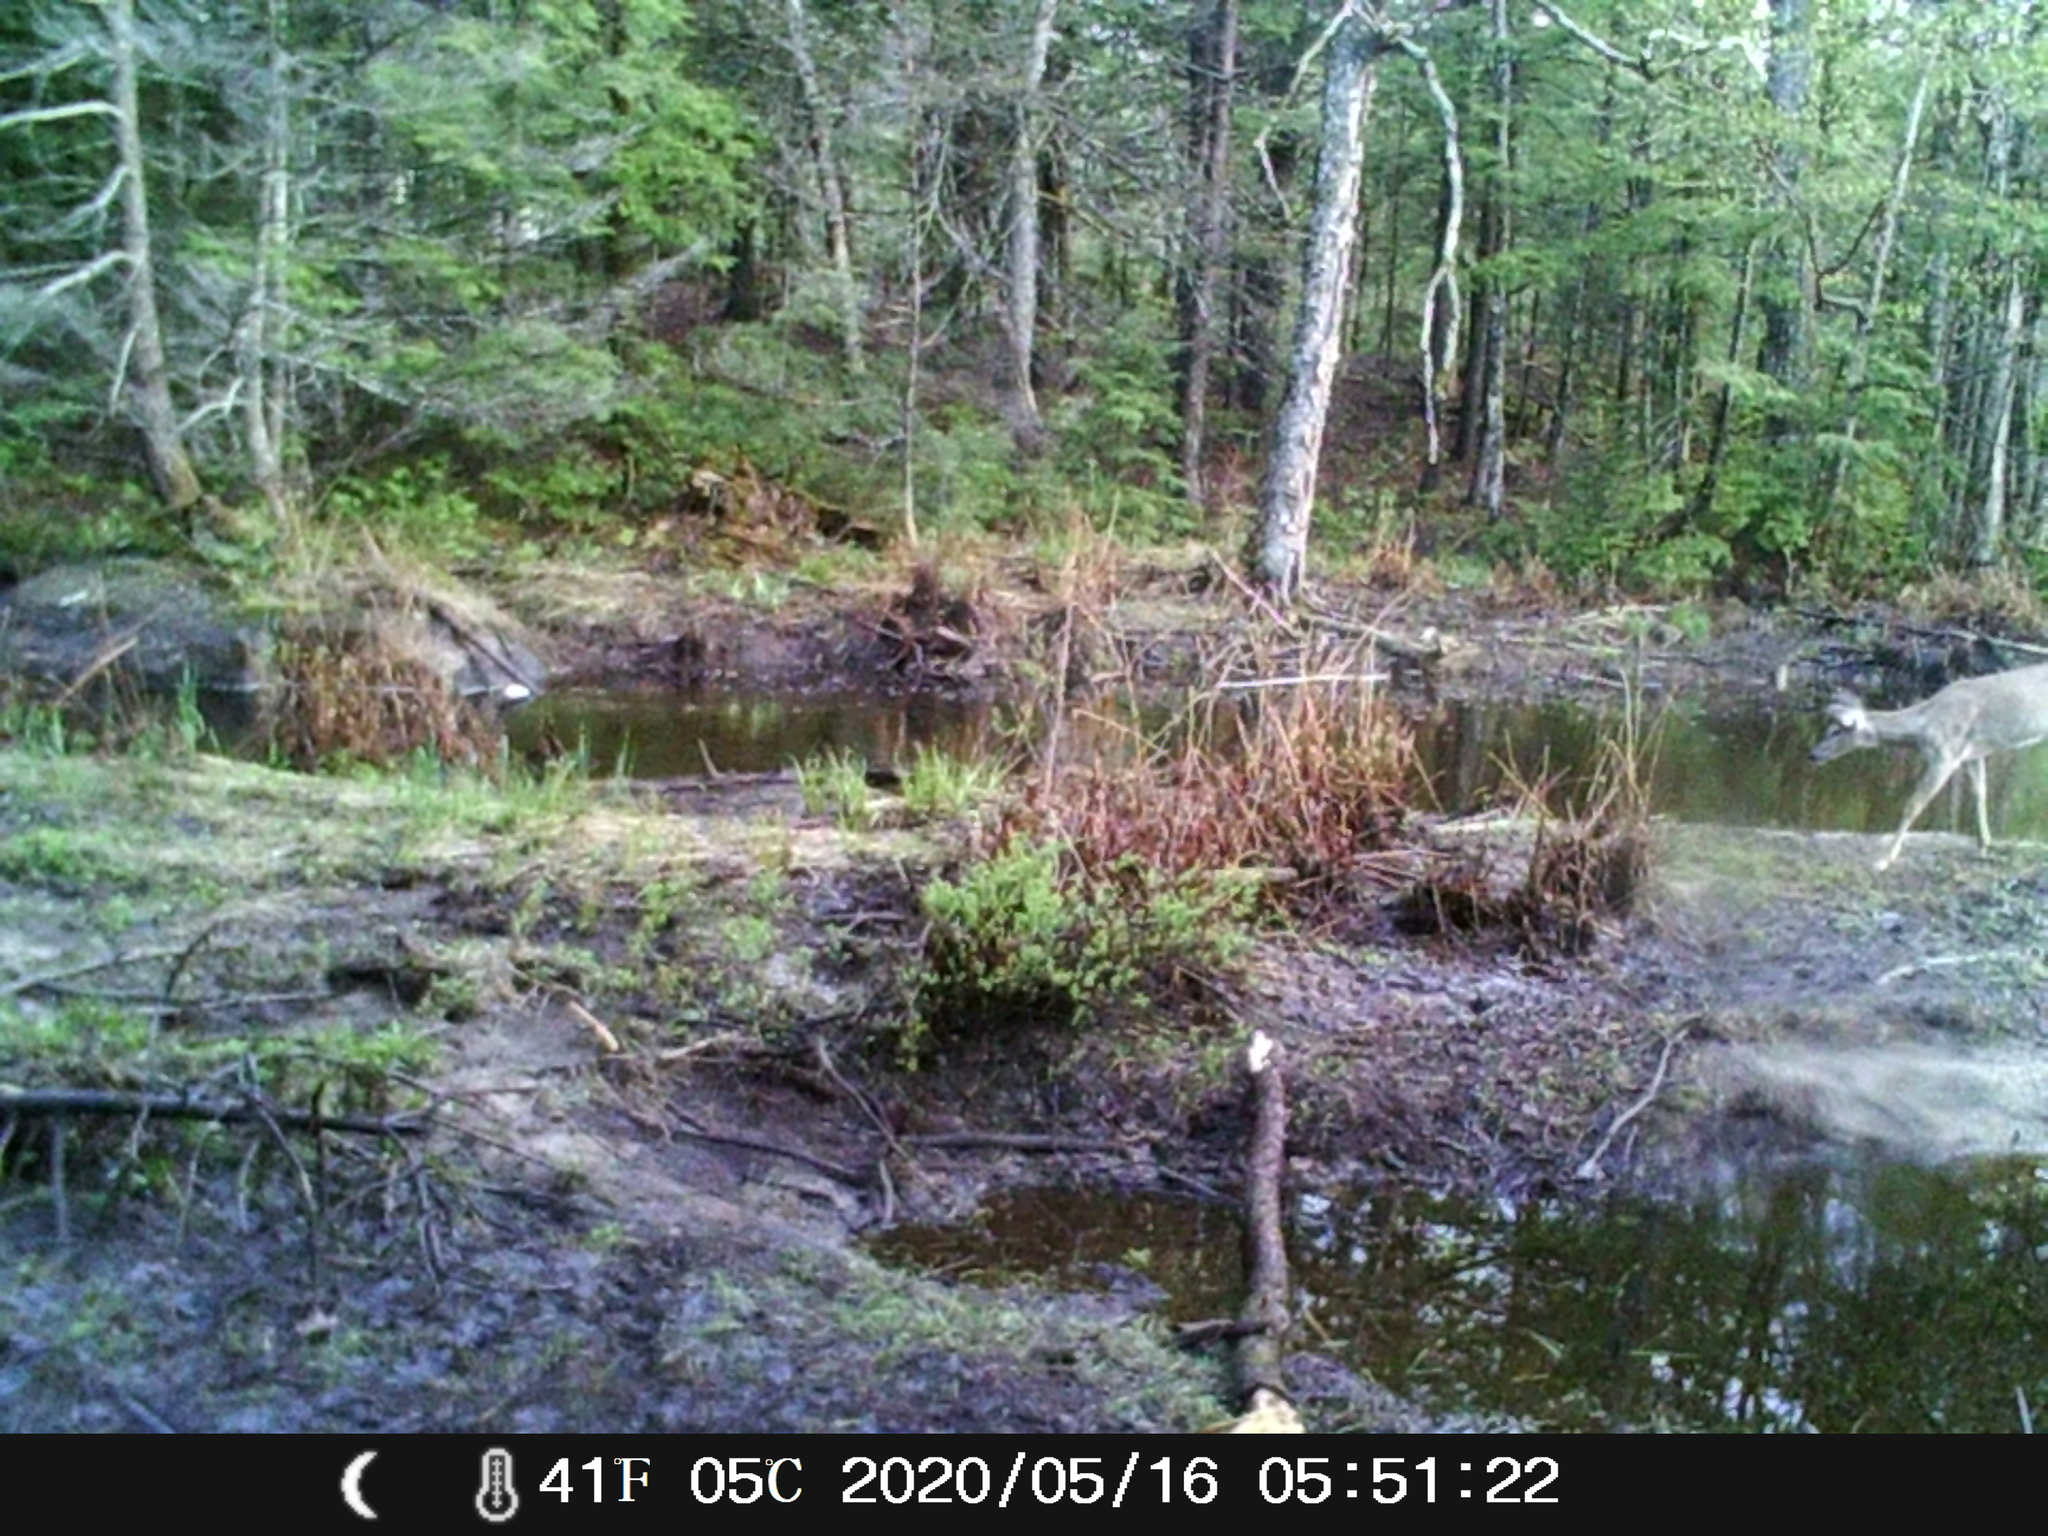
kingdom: Animalia
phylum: Chordata
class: Mammalia
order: Artiodactyla
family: Cervidae
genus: Odocoileus
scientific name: Odocoileus virginianus
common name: White-tailed deer
